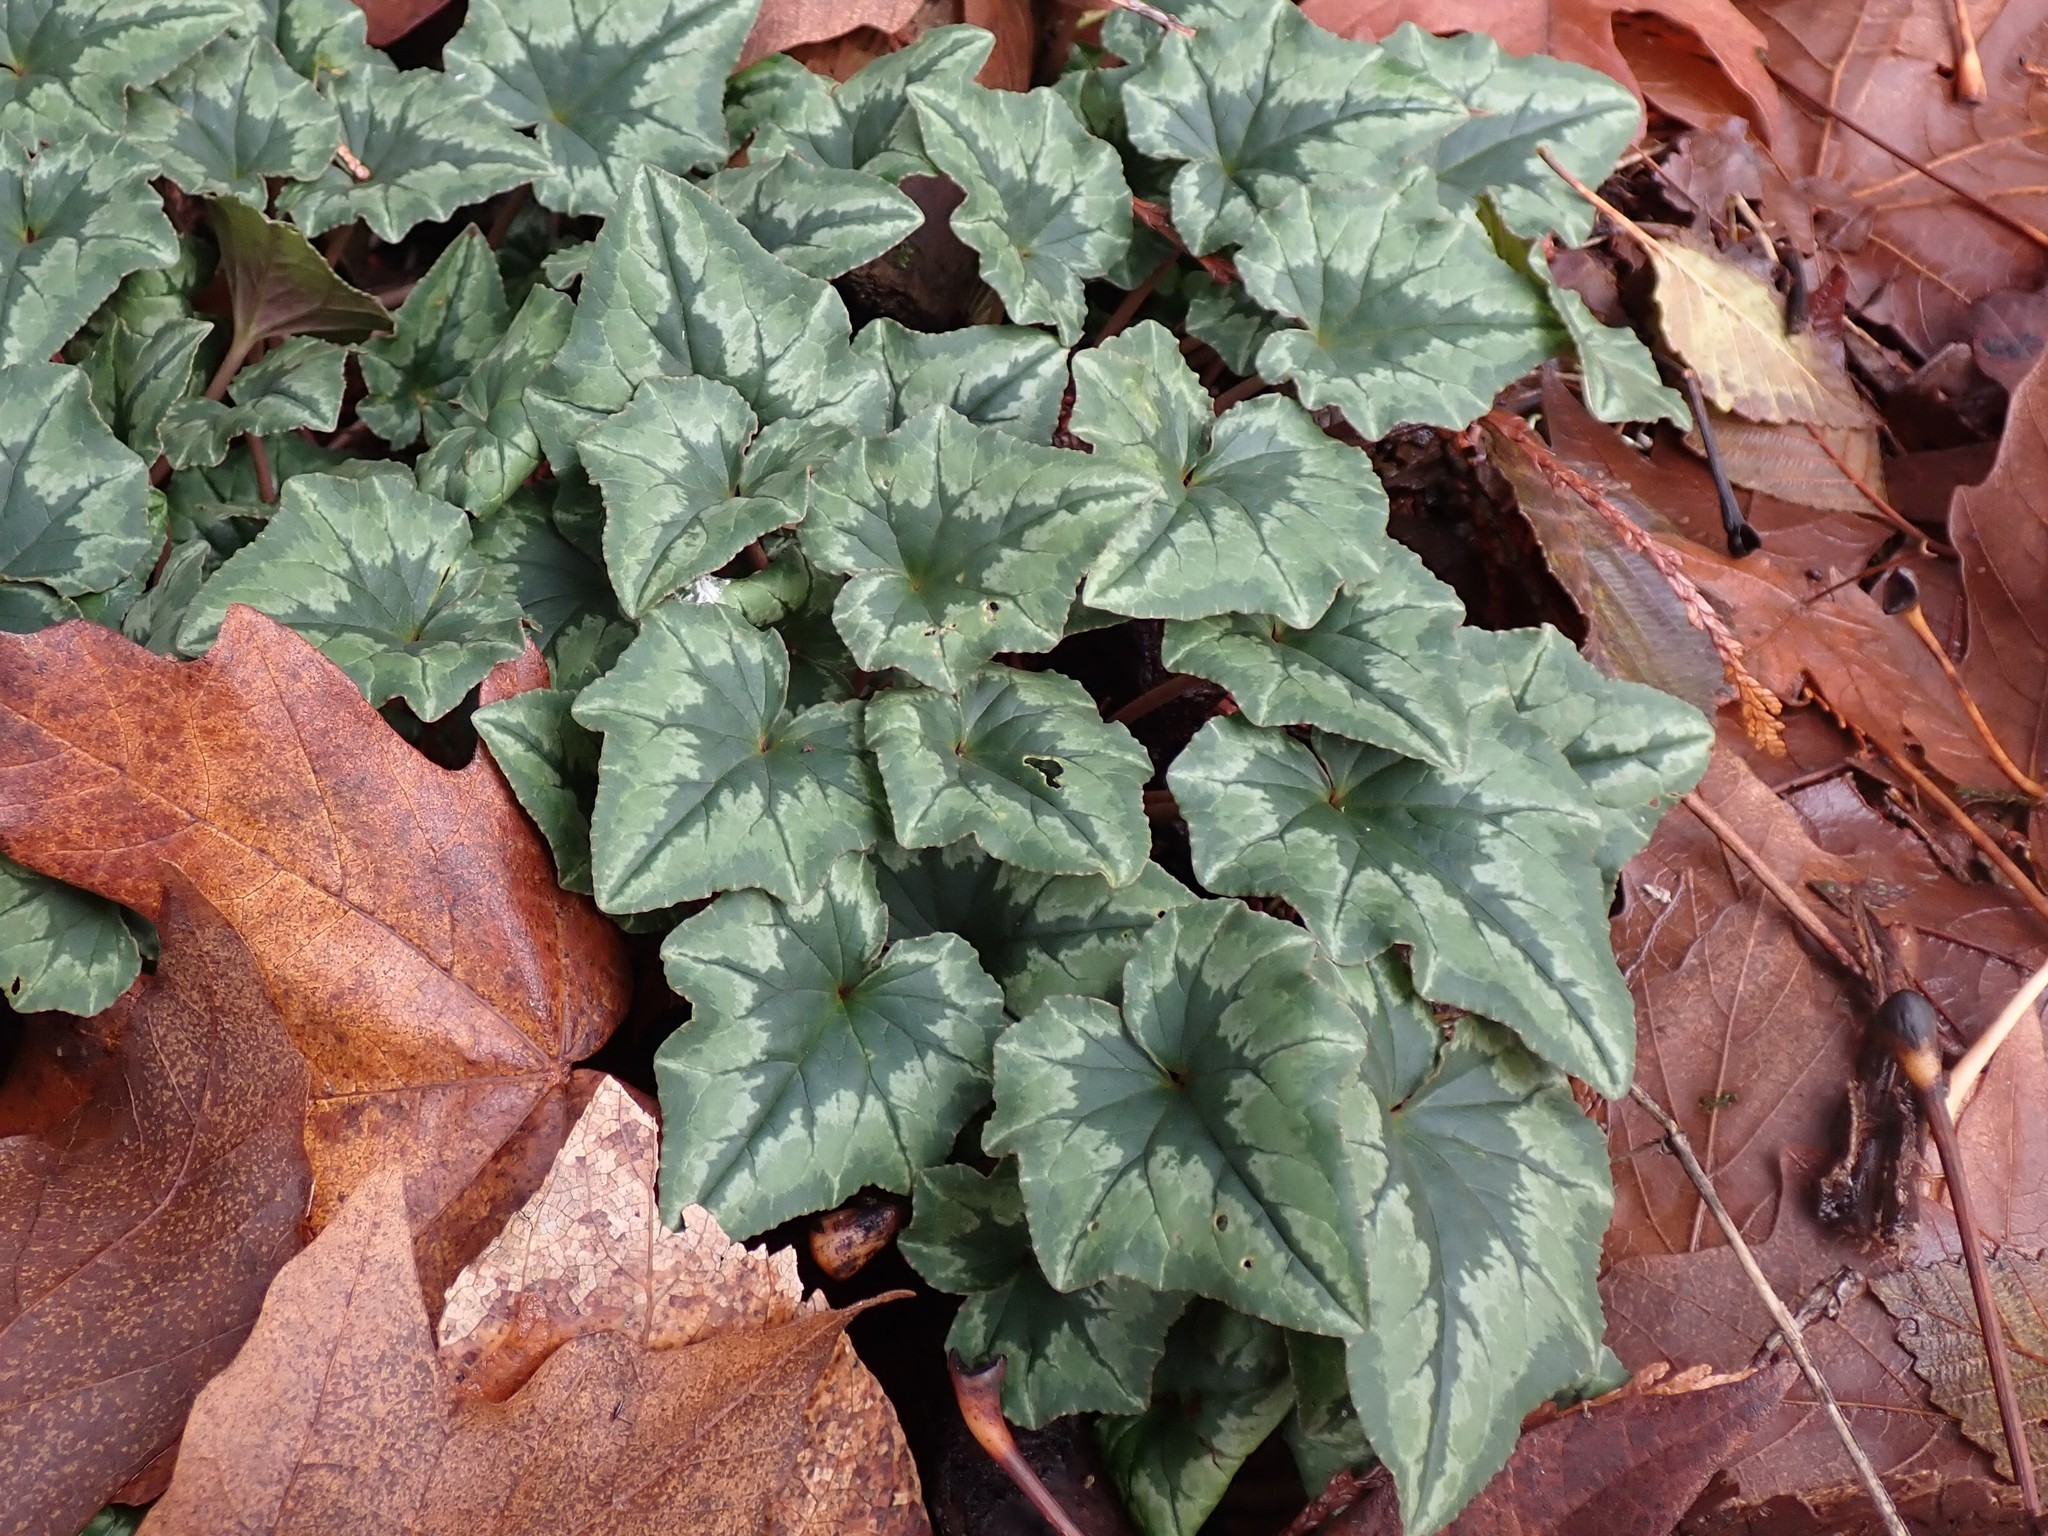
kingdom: Plantae
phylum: Tracheophyta
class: Magnoliopsida
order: Ericales
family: Primulaceae
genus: Cyclamen
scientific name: Cyclamen hederifolium
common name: Sowbread
